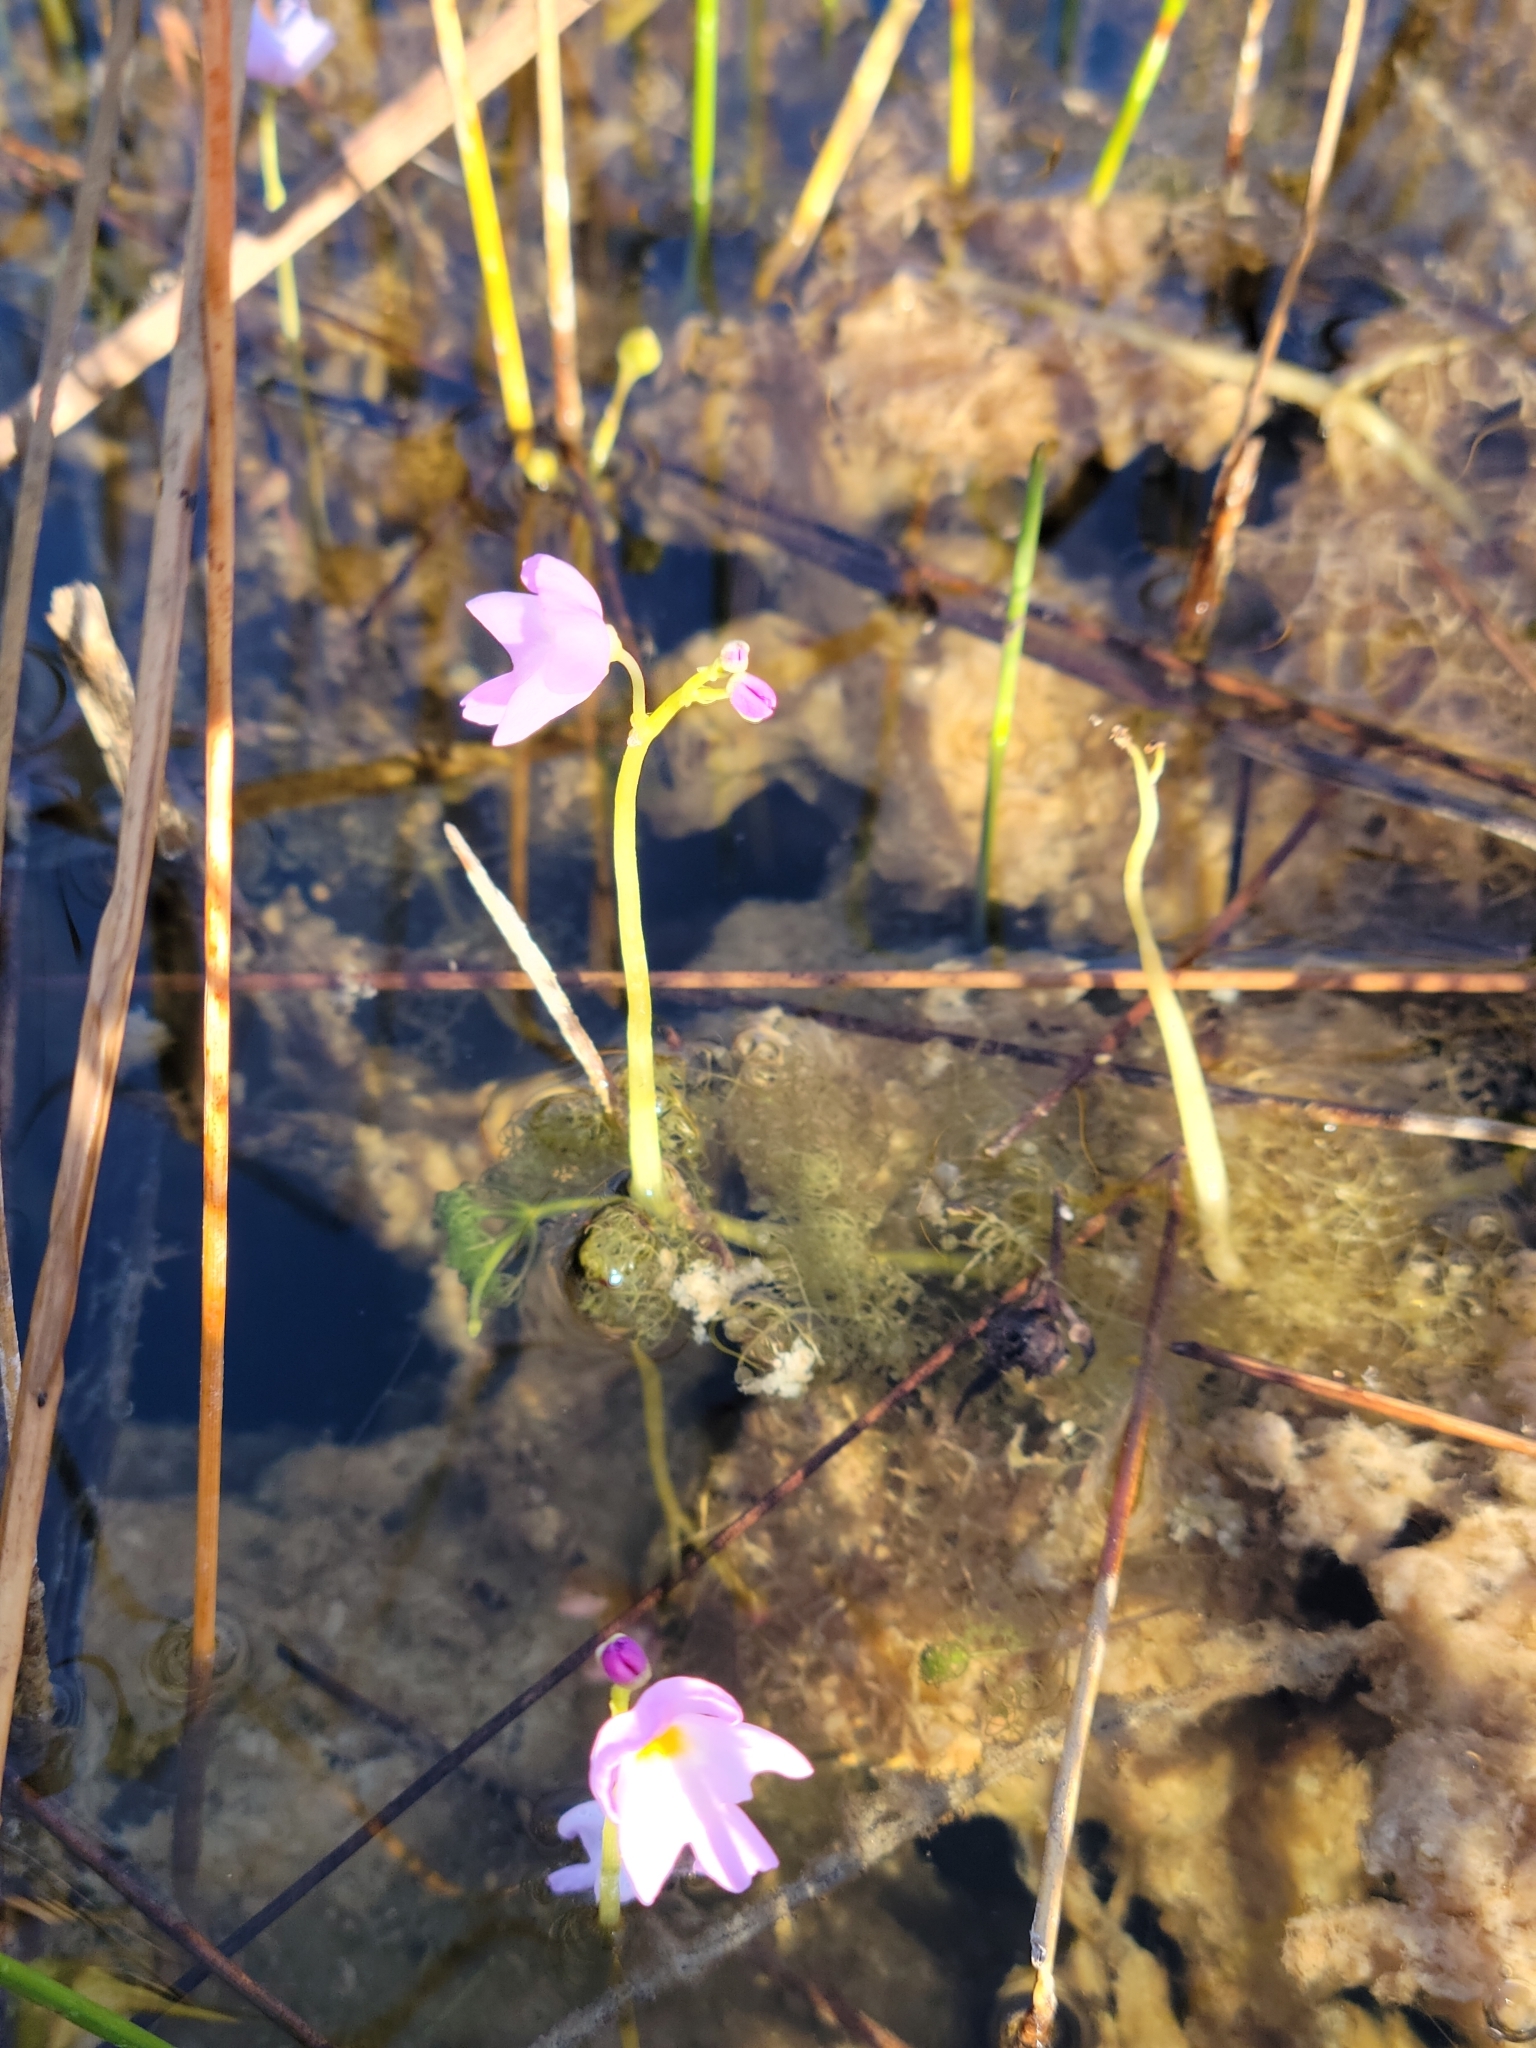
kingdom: Plantae
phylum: Tracheophyta
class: Magnoliopsida
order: Lamiales
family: Lentibulariaceae
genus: Utricularia
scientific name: Utricularia purpurea
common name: Eastern purple bladderwort
